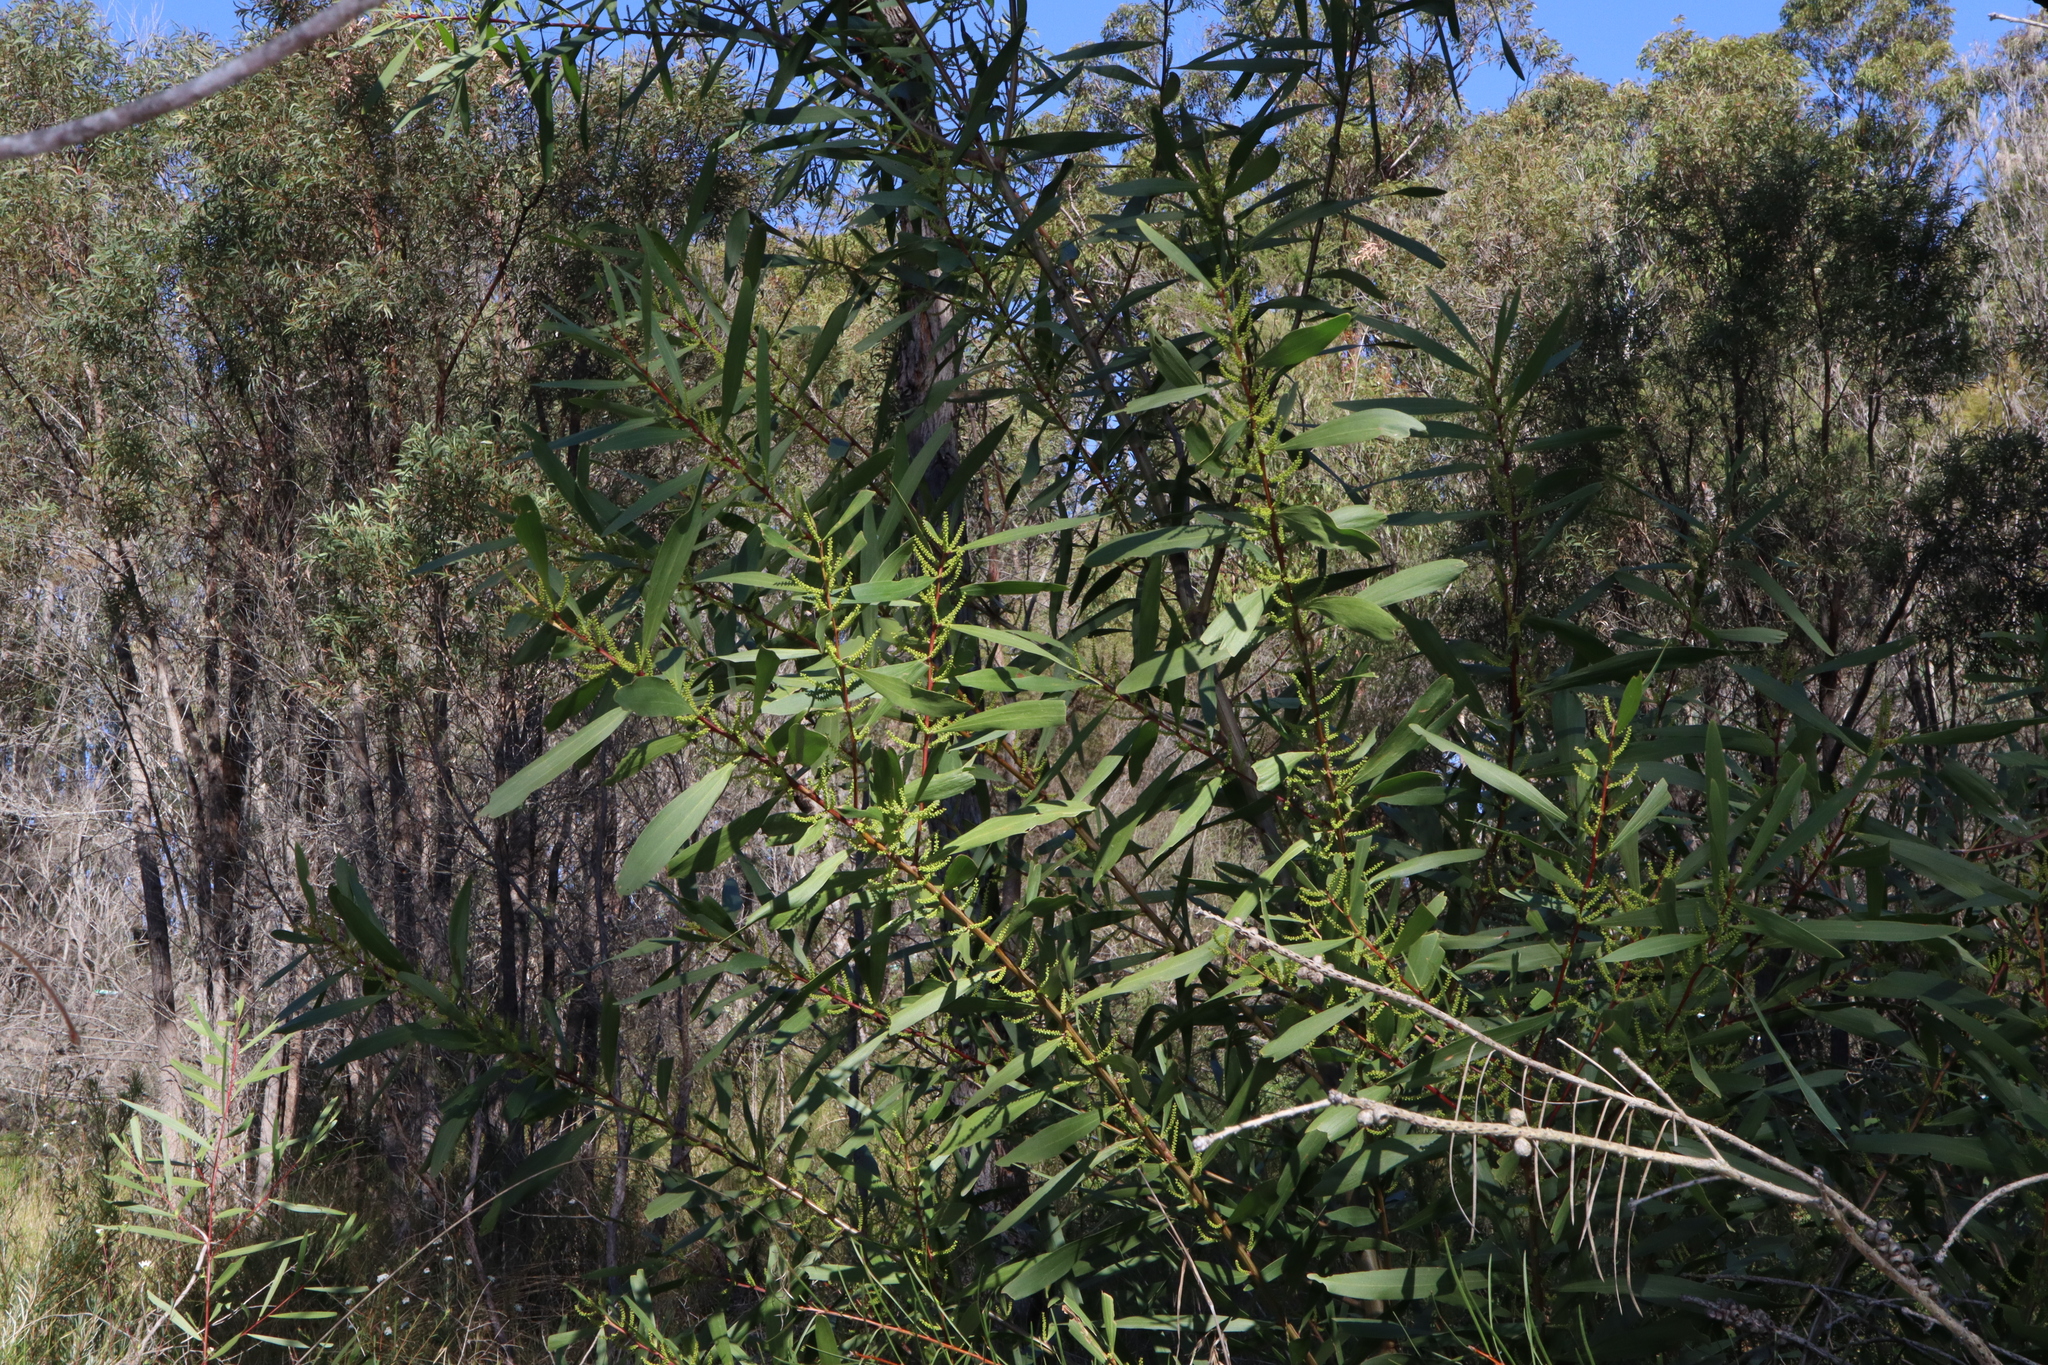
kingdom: Plantae
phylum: Tracheophyta
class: Magnoliopsida
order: Fabales
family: Fabaceae
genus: Acacia
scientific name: Acacia longifolia
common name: Sydney golden wattle
